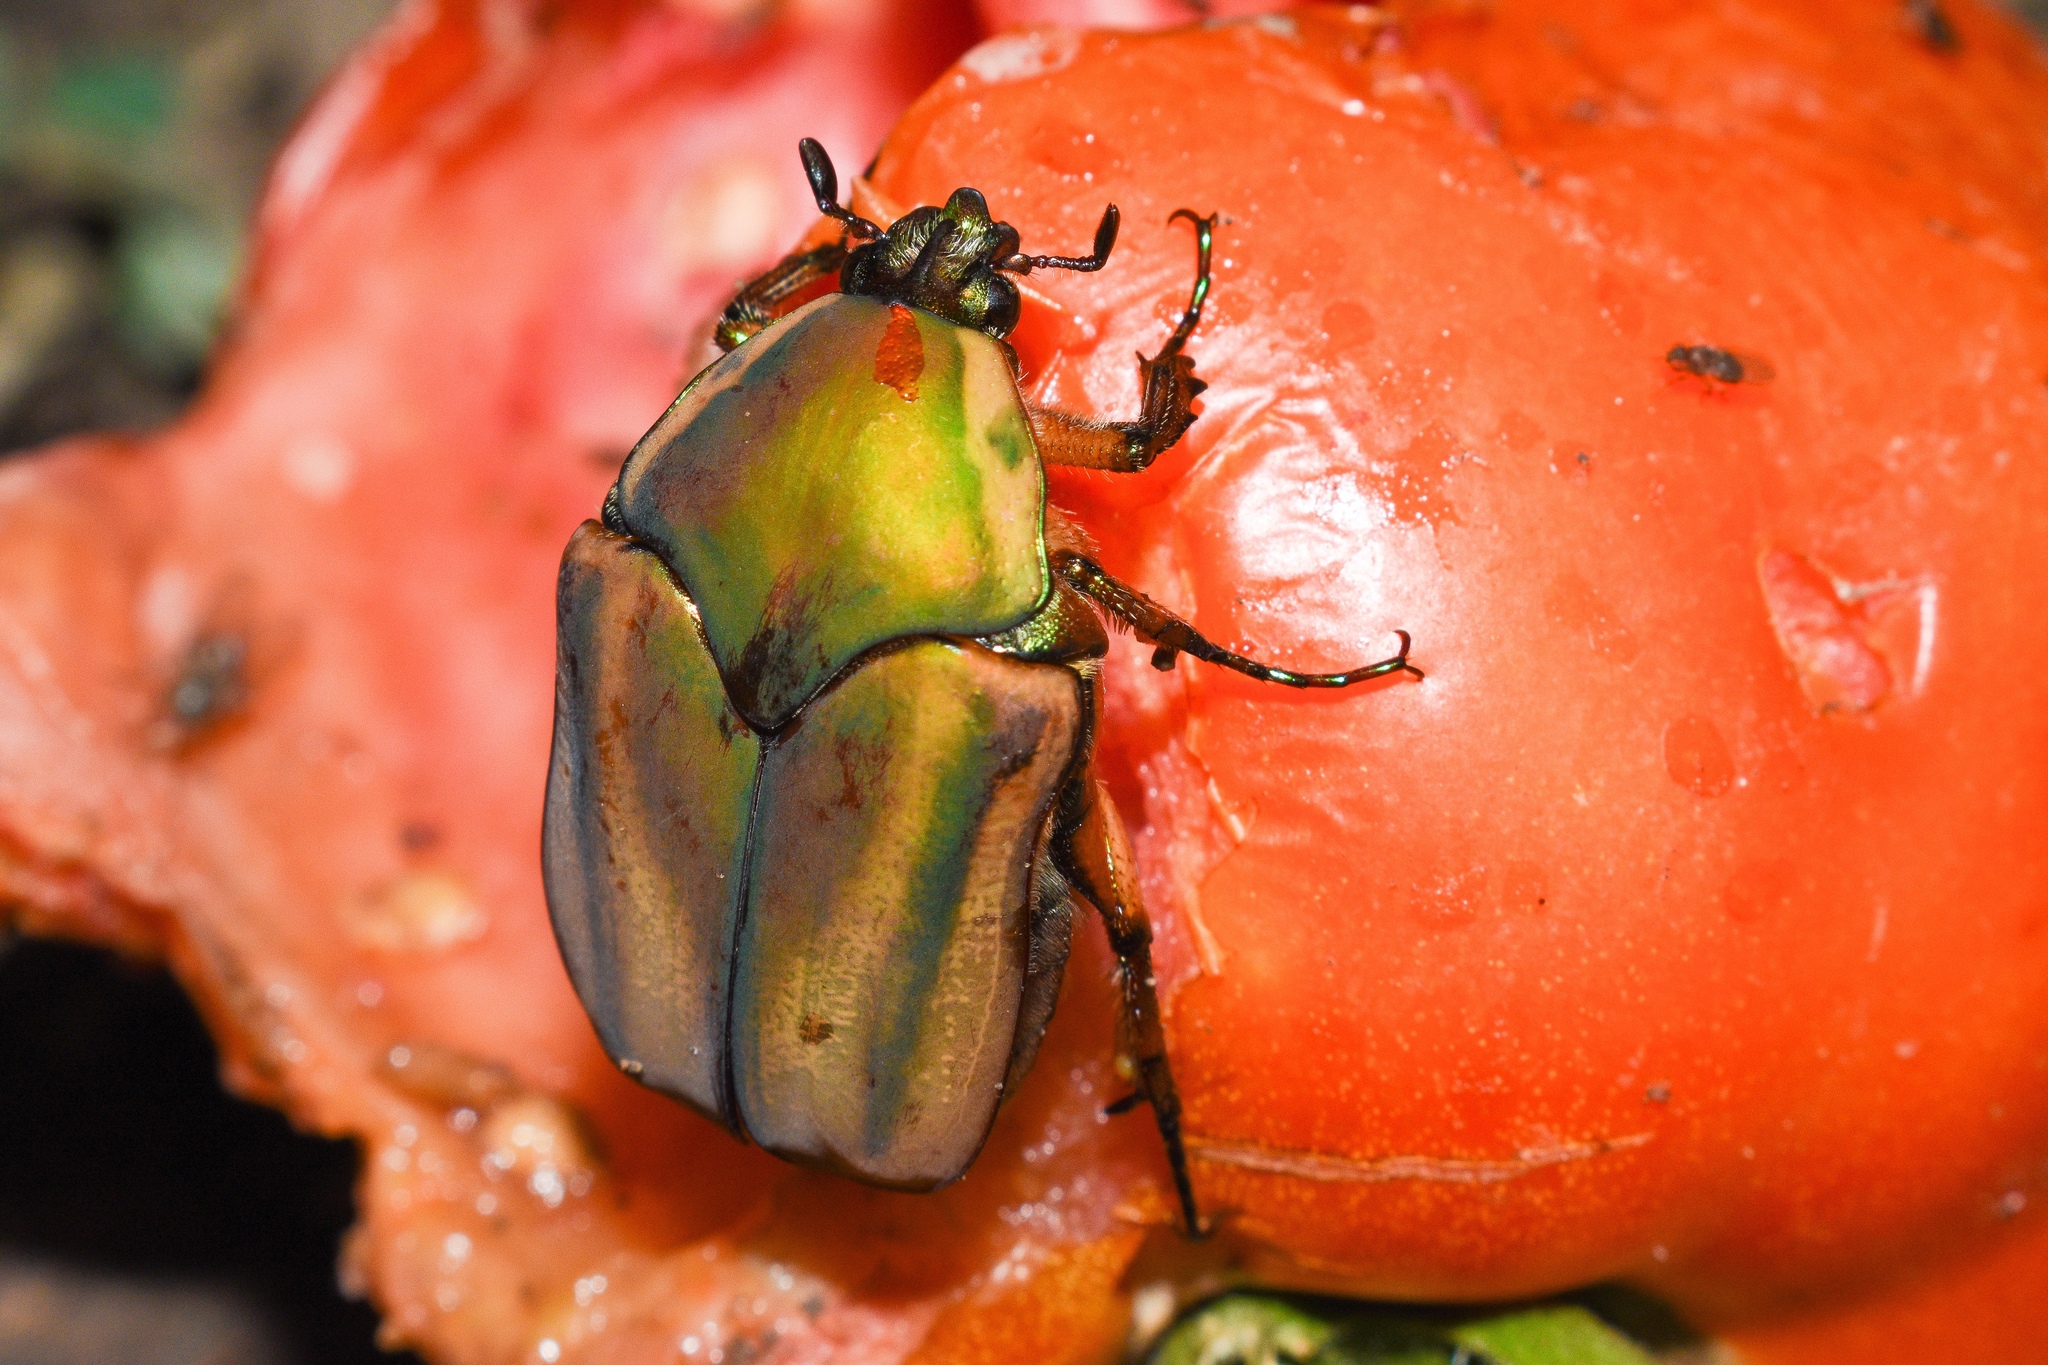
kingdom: Animalia
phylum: Arthropoda
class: Insecta
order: Coleoptera
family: Scarabaeidae
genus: Cotinis
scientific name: Cotinis nitida
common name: Common green june beetle
